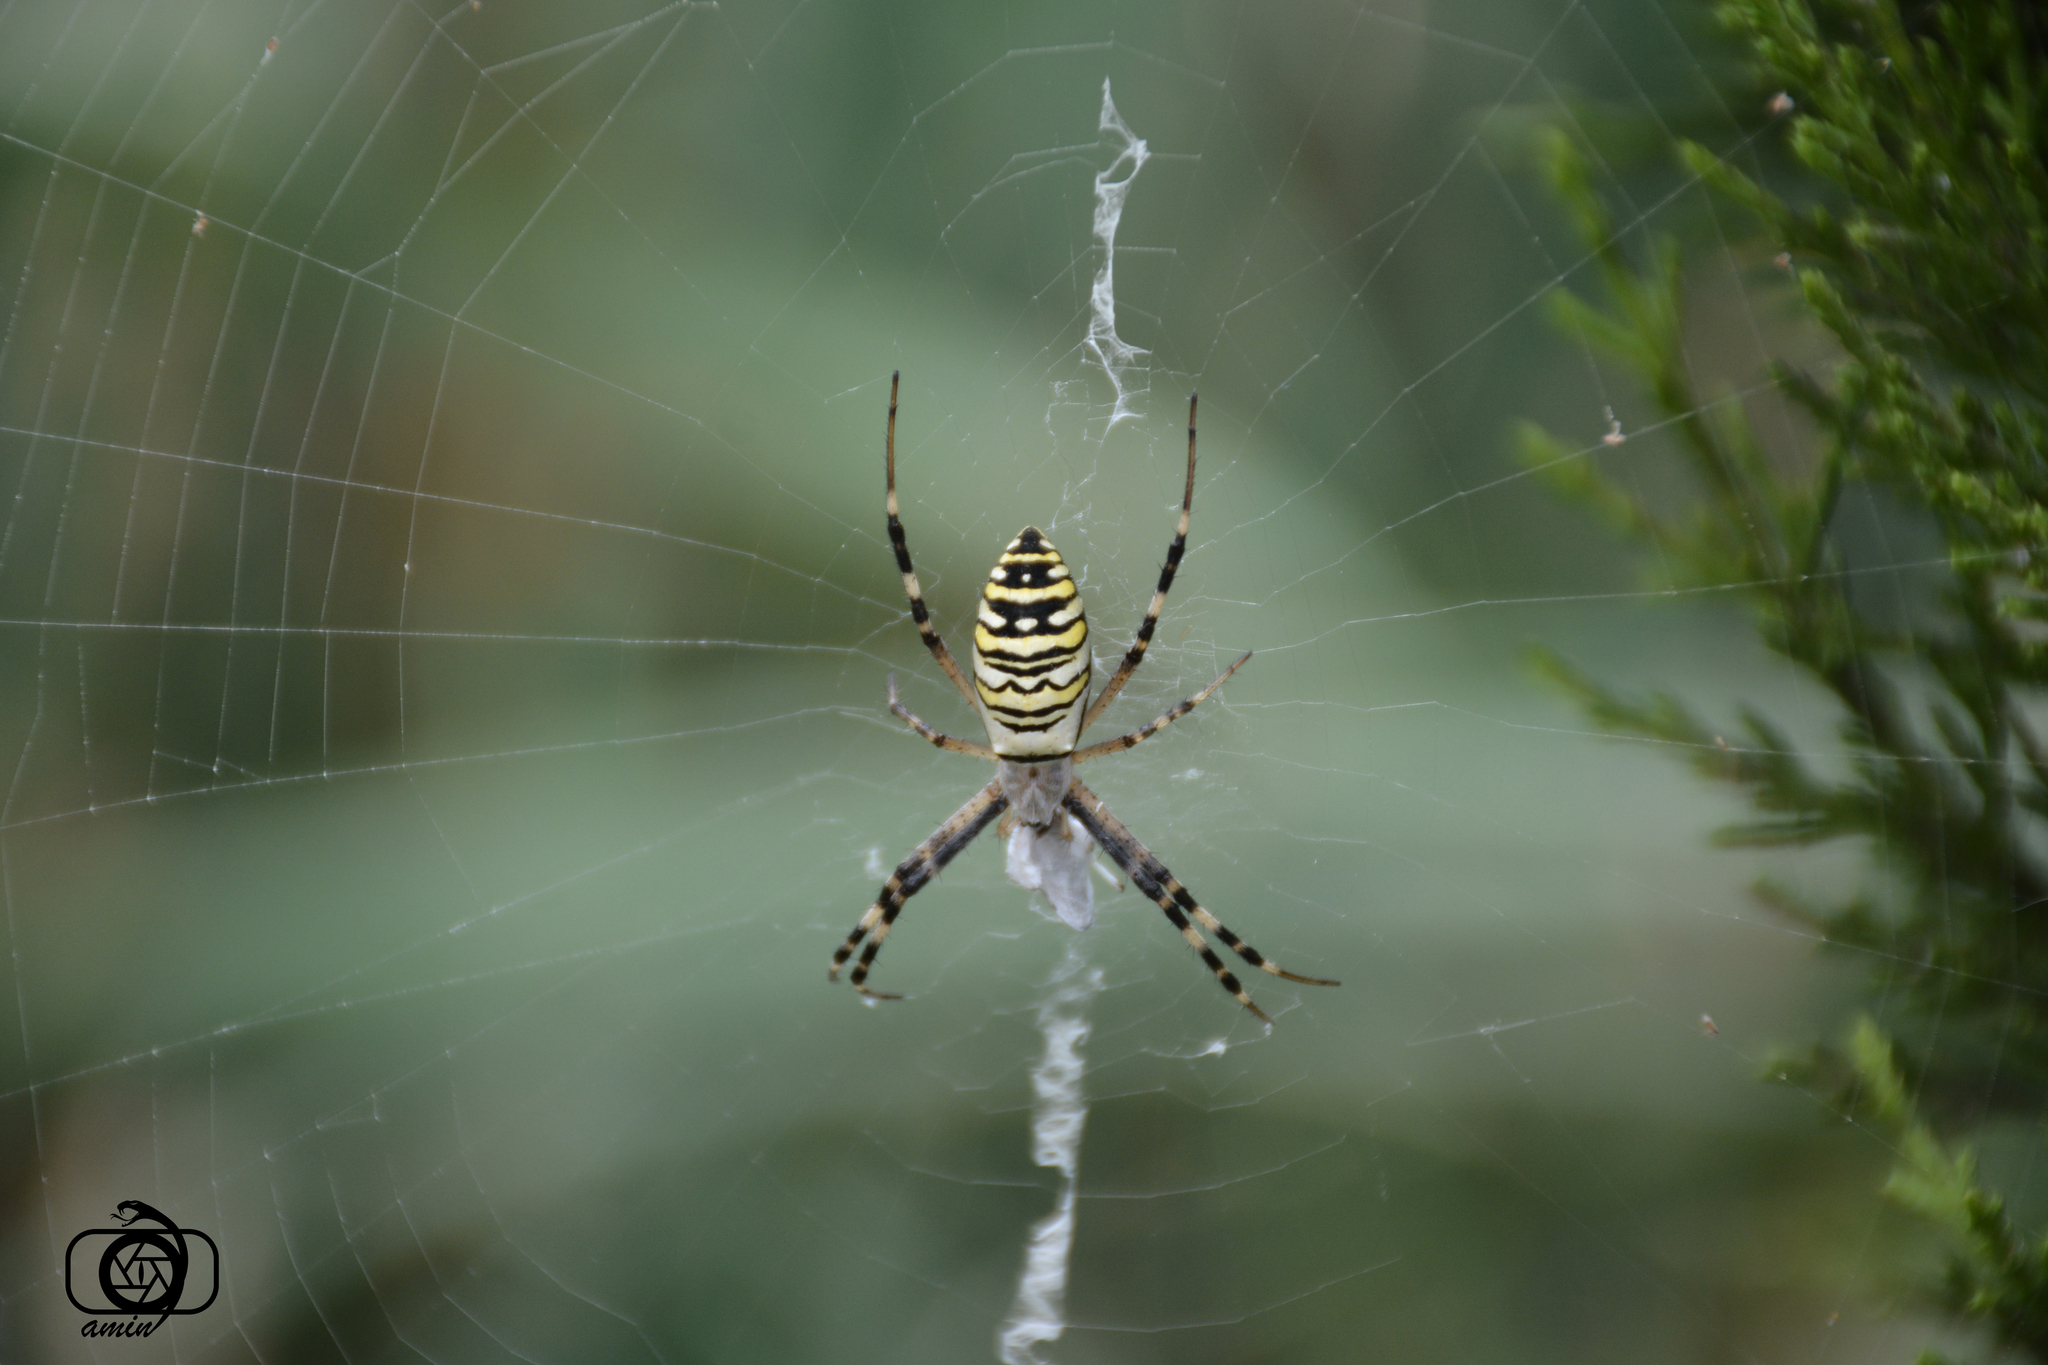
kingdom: Animalia
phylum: Arthropoda
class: Arachnida
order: Araneae
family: Araneidae
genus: Argiope
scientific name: Argiope bruennichi
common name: Wasp spider
